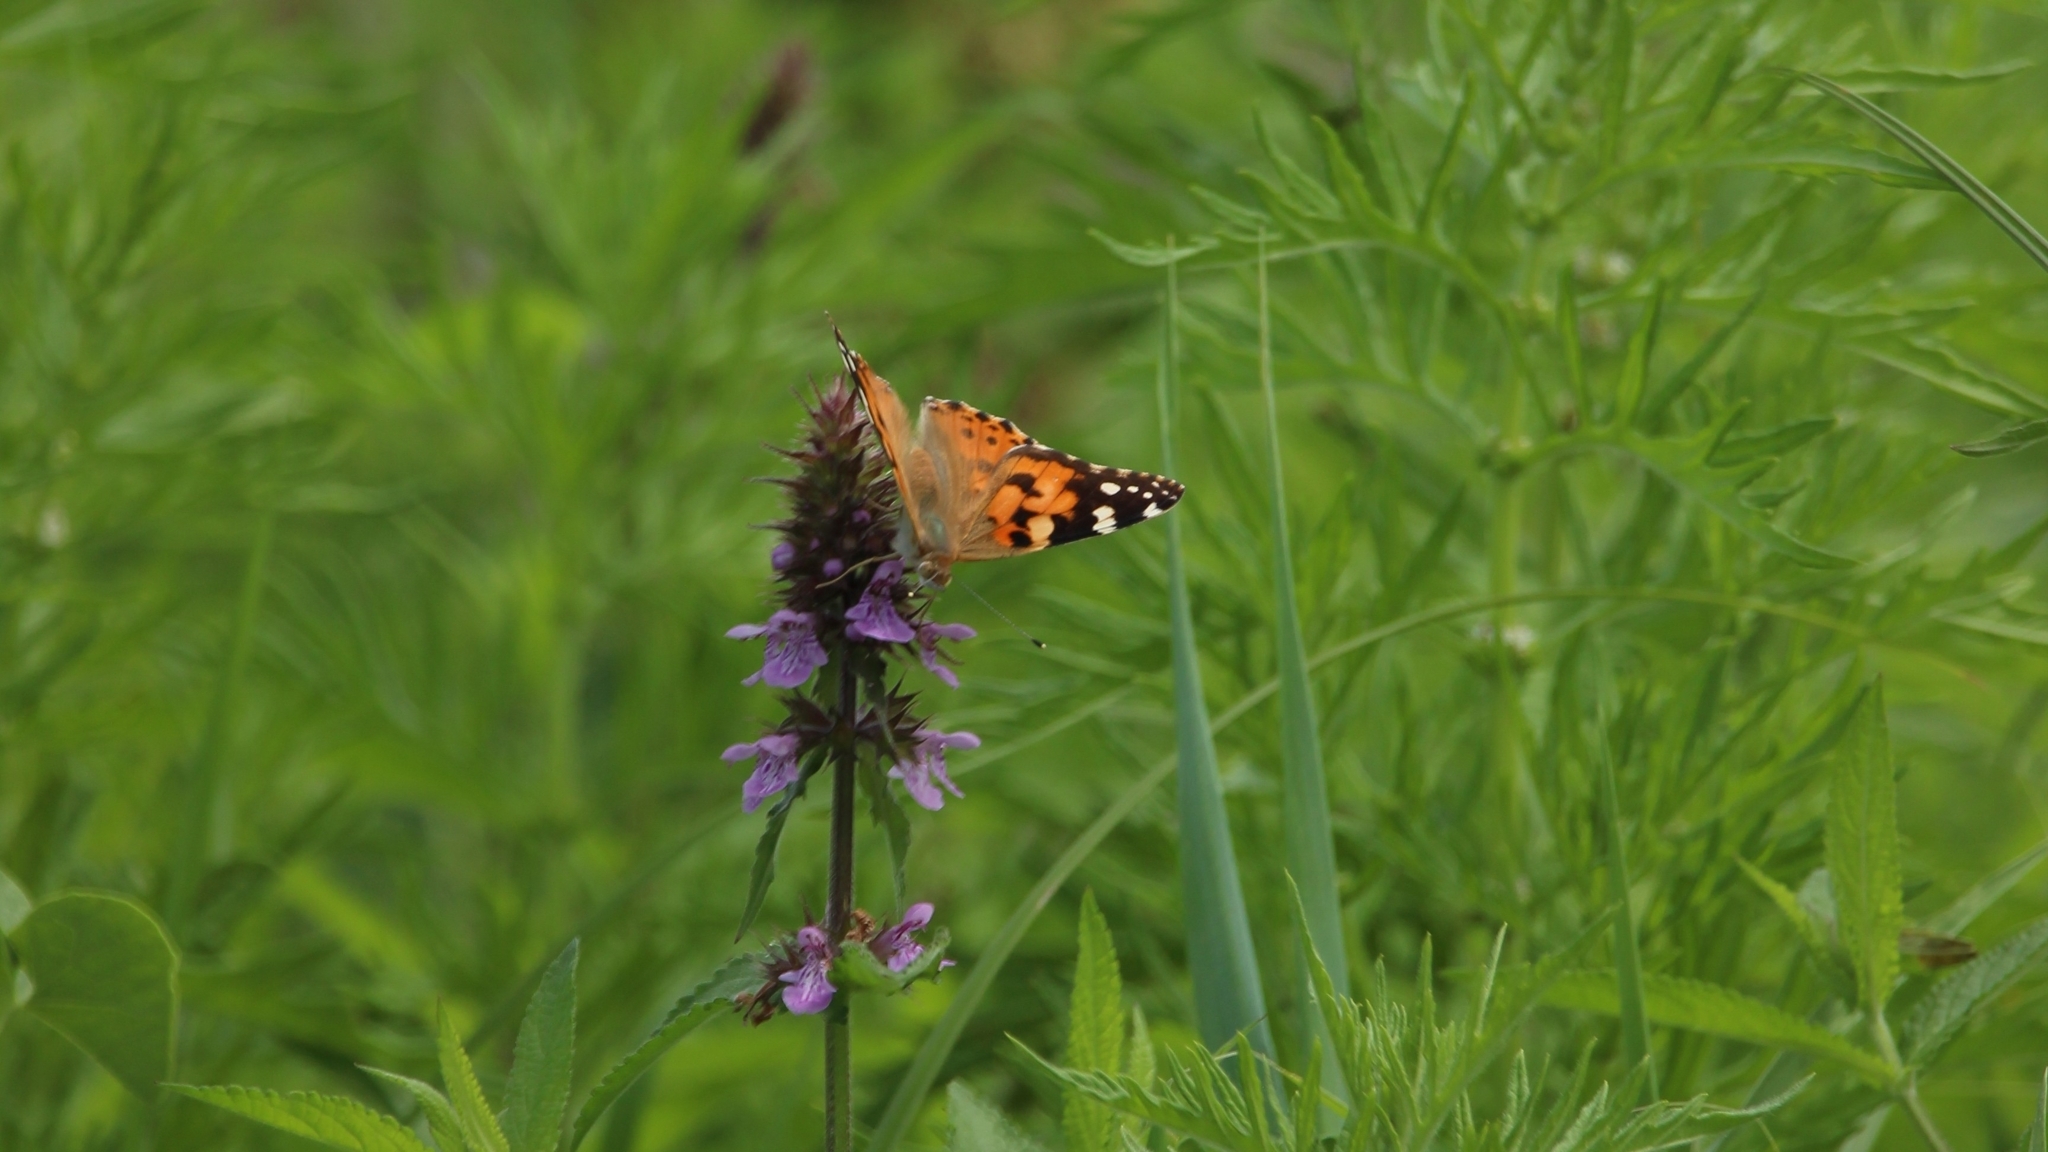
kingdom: Animalia
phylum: Arthropoda
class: Insecta
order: Lepidoptera
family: Nymphalidae
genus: Vanessa
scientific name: Vanessa cardui
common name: Painted lady
